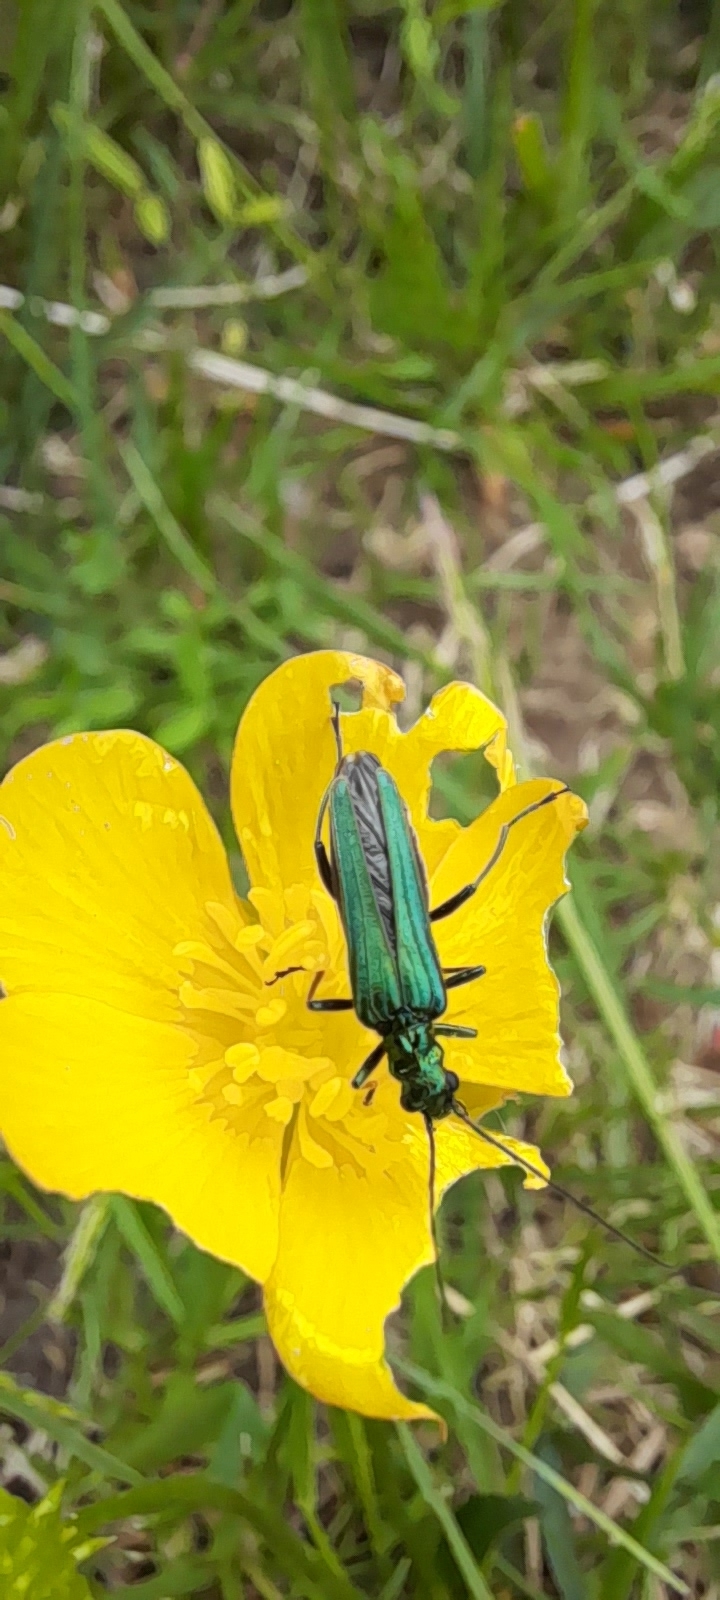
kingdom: Animalia
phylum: Arthropoda
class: Insecta
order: Coleoptera
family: Oedemeridae
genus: Oedemera
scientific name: Oedemera nobilis
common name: Swollen-thighed beetle
